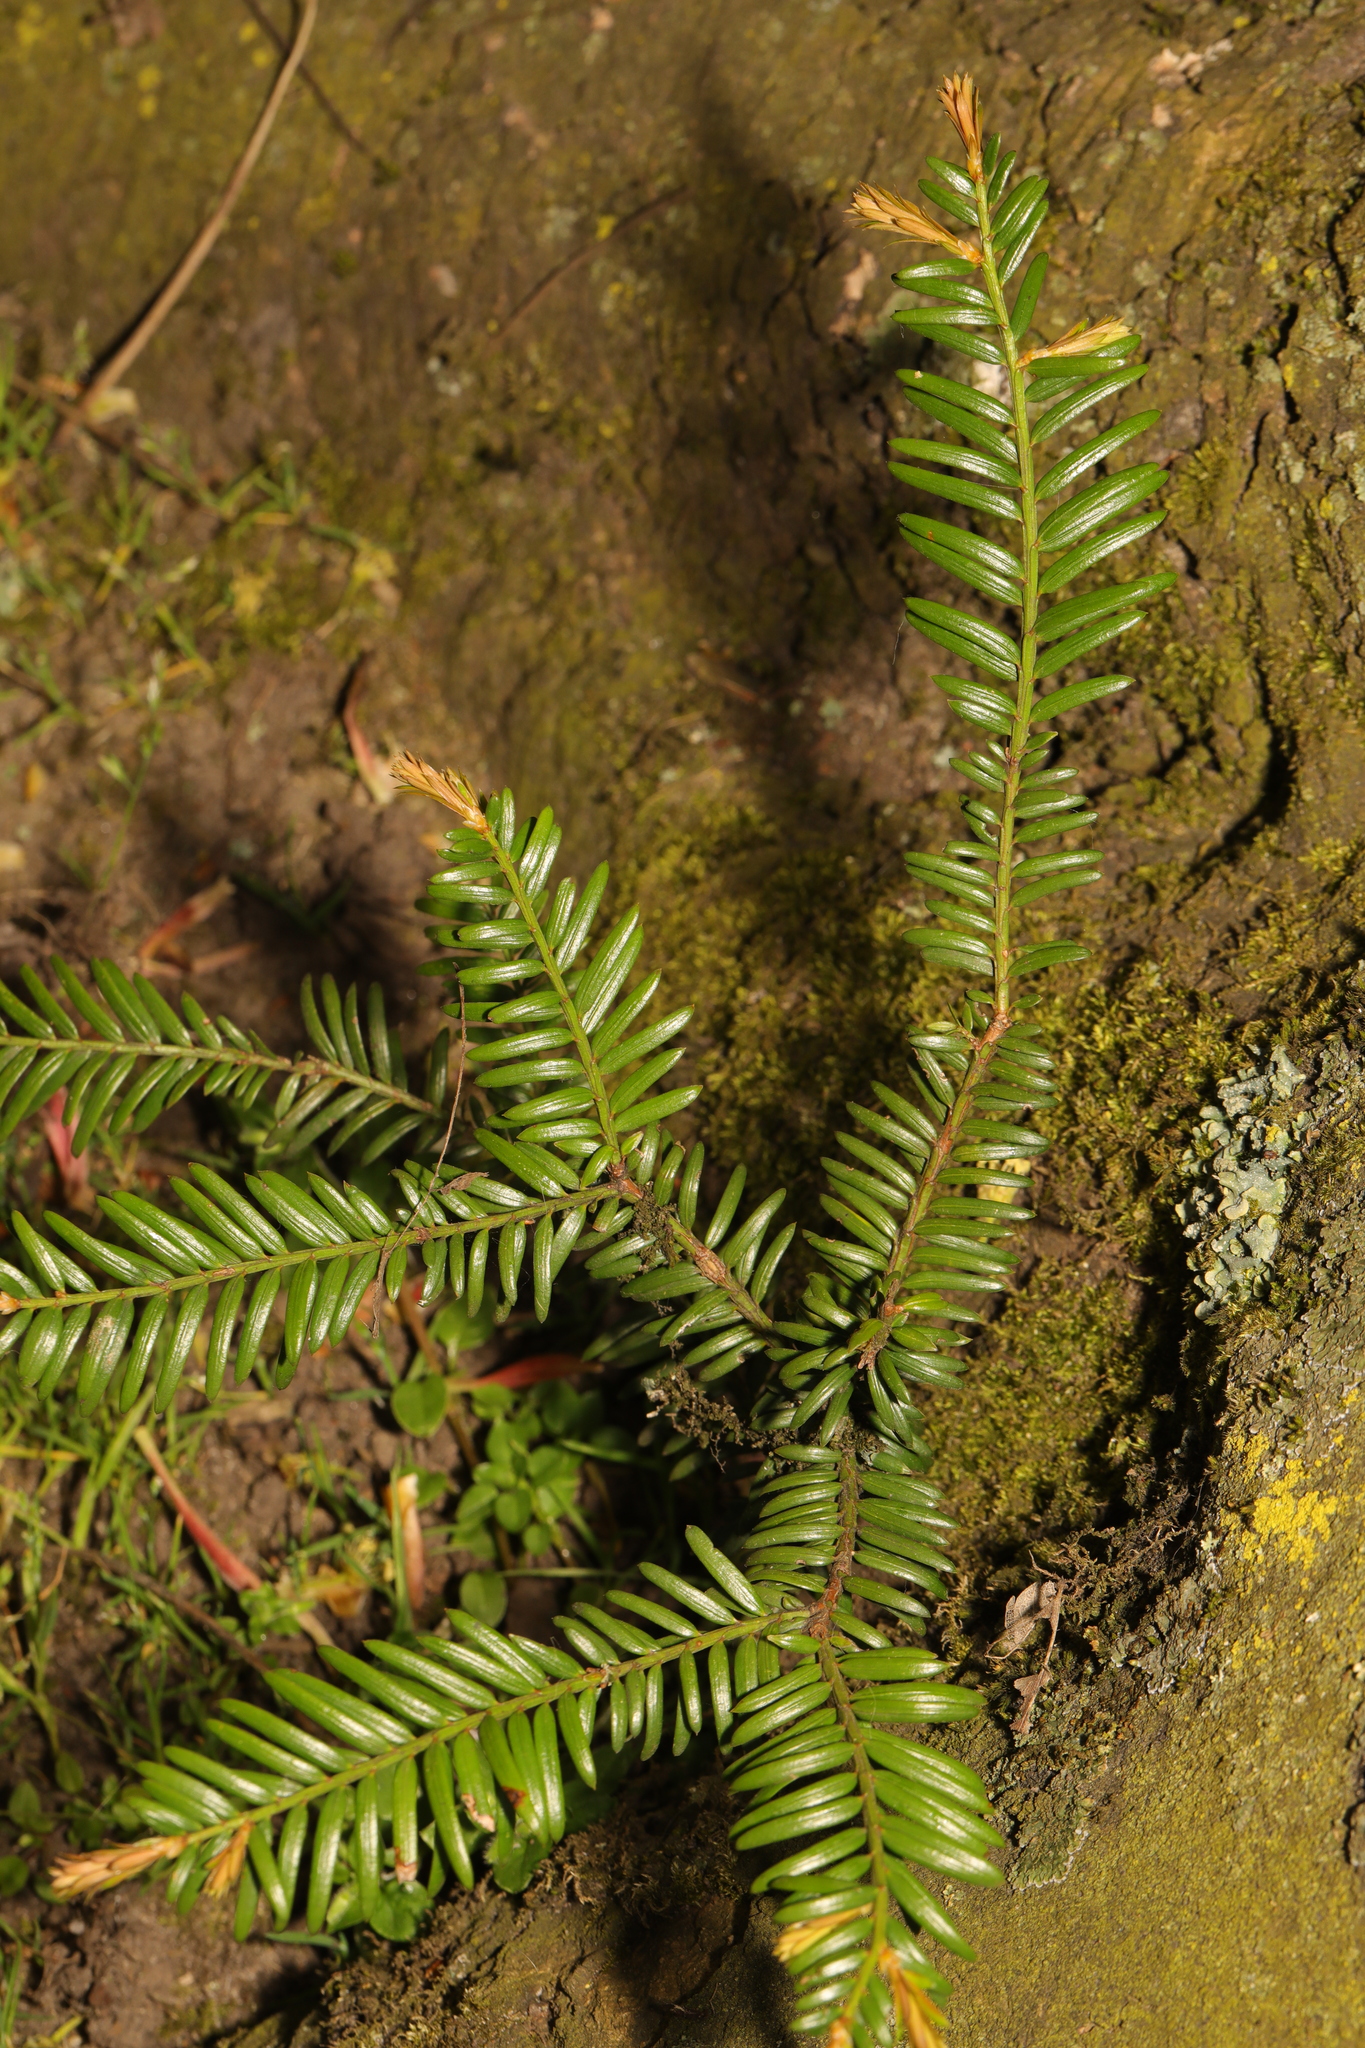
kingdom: Plantae
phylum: Tracheophyta
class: Pinopsida
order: Pinales
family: Taxaceae
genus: Taxus
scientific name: Taxus baccata
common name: Yew
